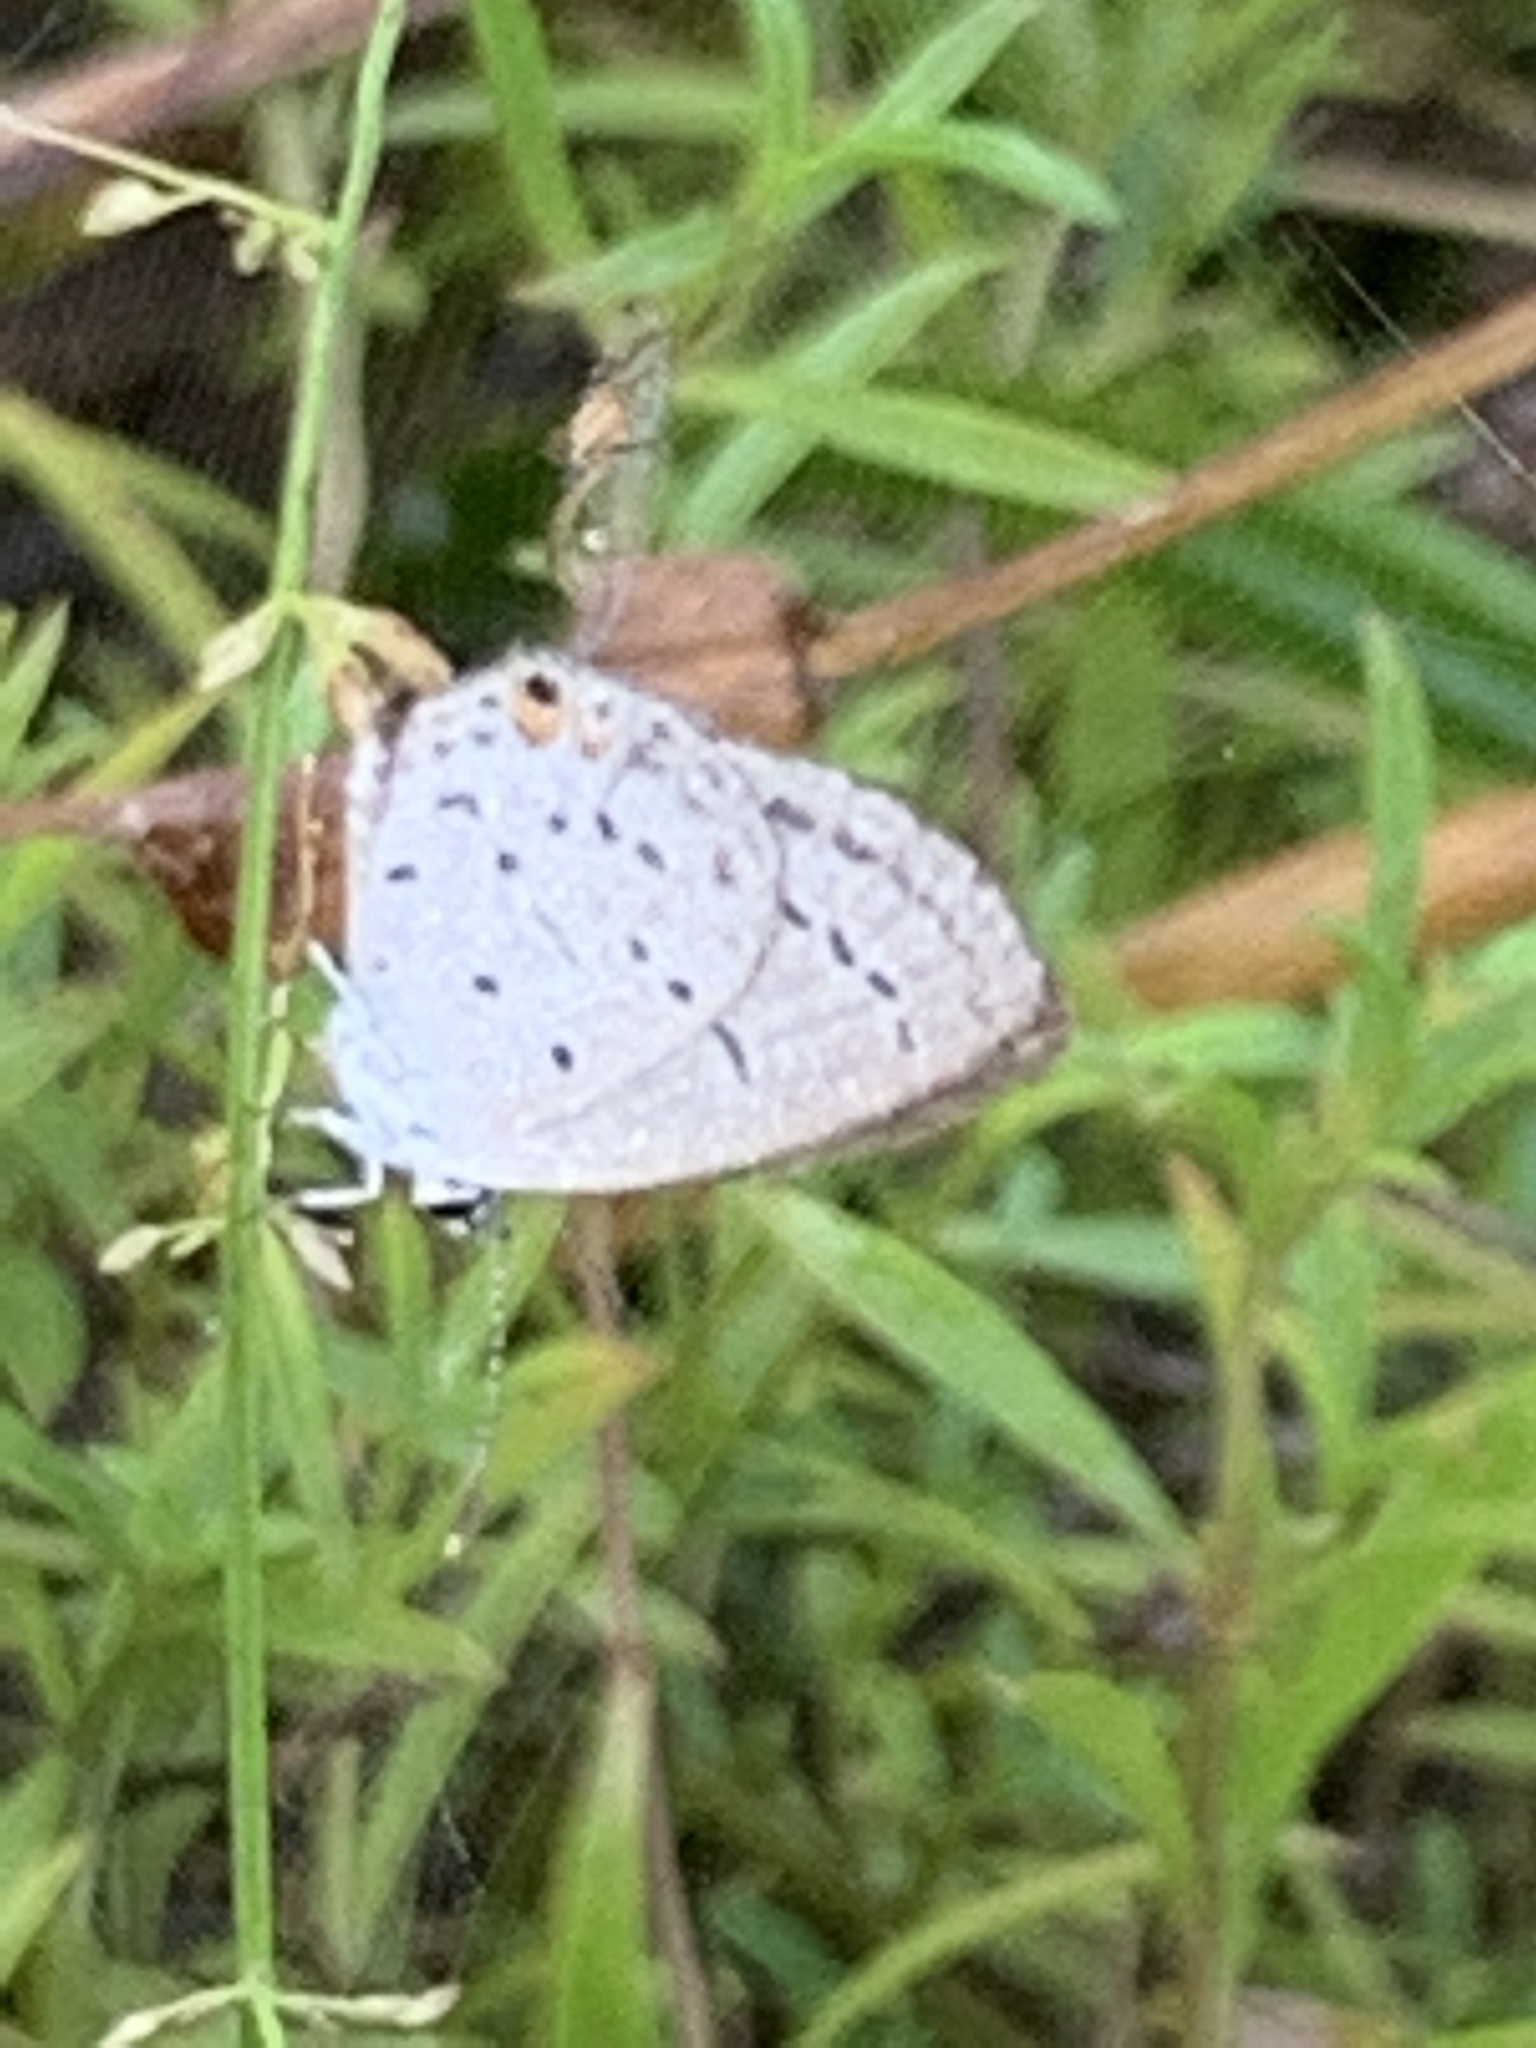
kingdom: Animalia
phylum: Arthropoda
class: Insecta
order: Lepidoptera
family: Lycaenidae
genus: Elkalyce
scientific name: Elkalyce texana
